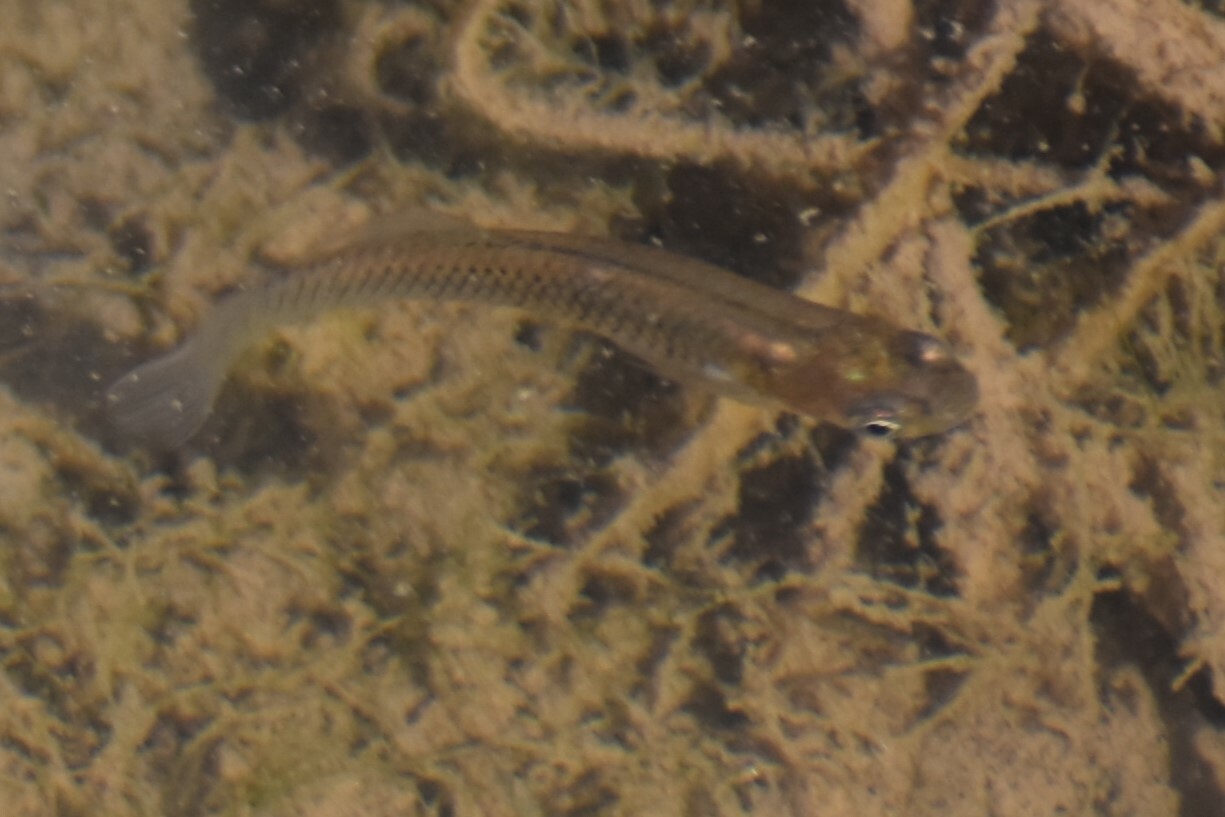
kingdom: Animalia
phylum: Chordata
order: Cyprinodontiformes
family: Poeciliidae
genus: Gambusia
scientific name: Gambusia affinis
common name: Mosquitofish
